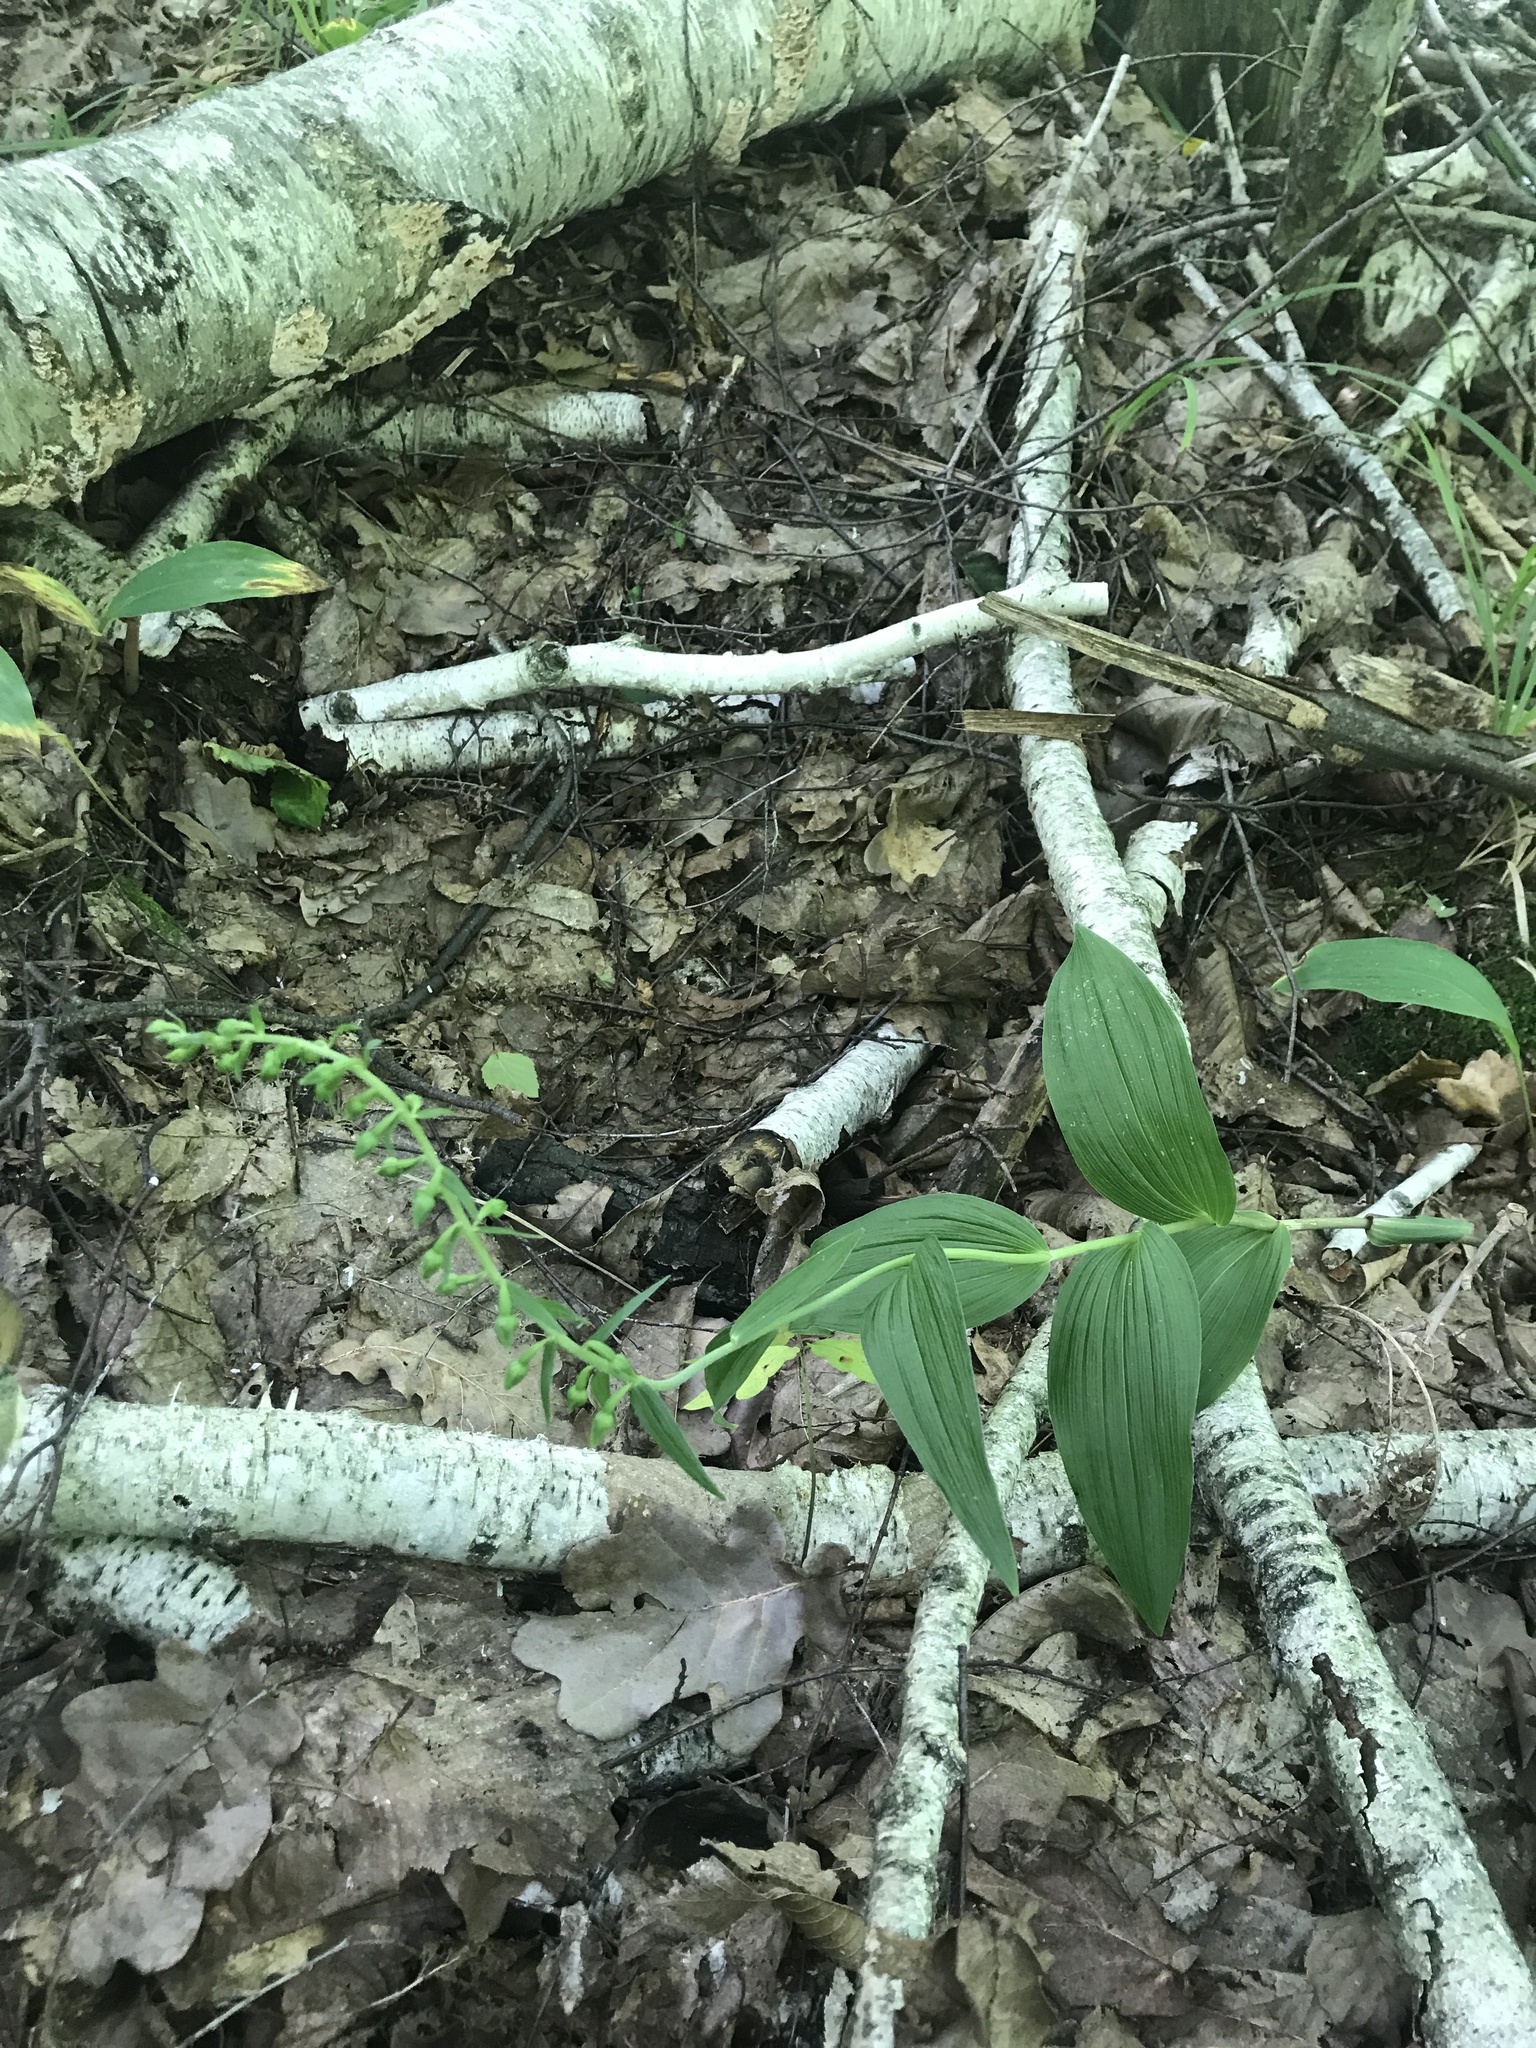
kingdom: Plantae
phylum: Tracheophyta
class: Liliopsida
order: Asparagales
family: Orchidaceae
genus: Epipactis
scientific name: Epipactis helleborine
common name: Broad-leaved helleborine
